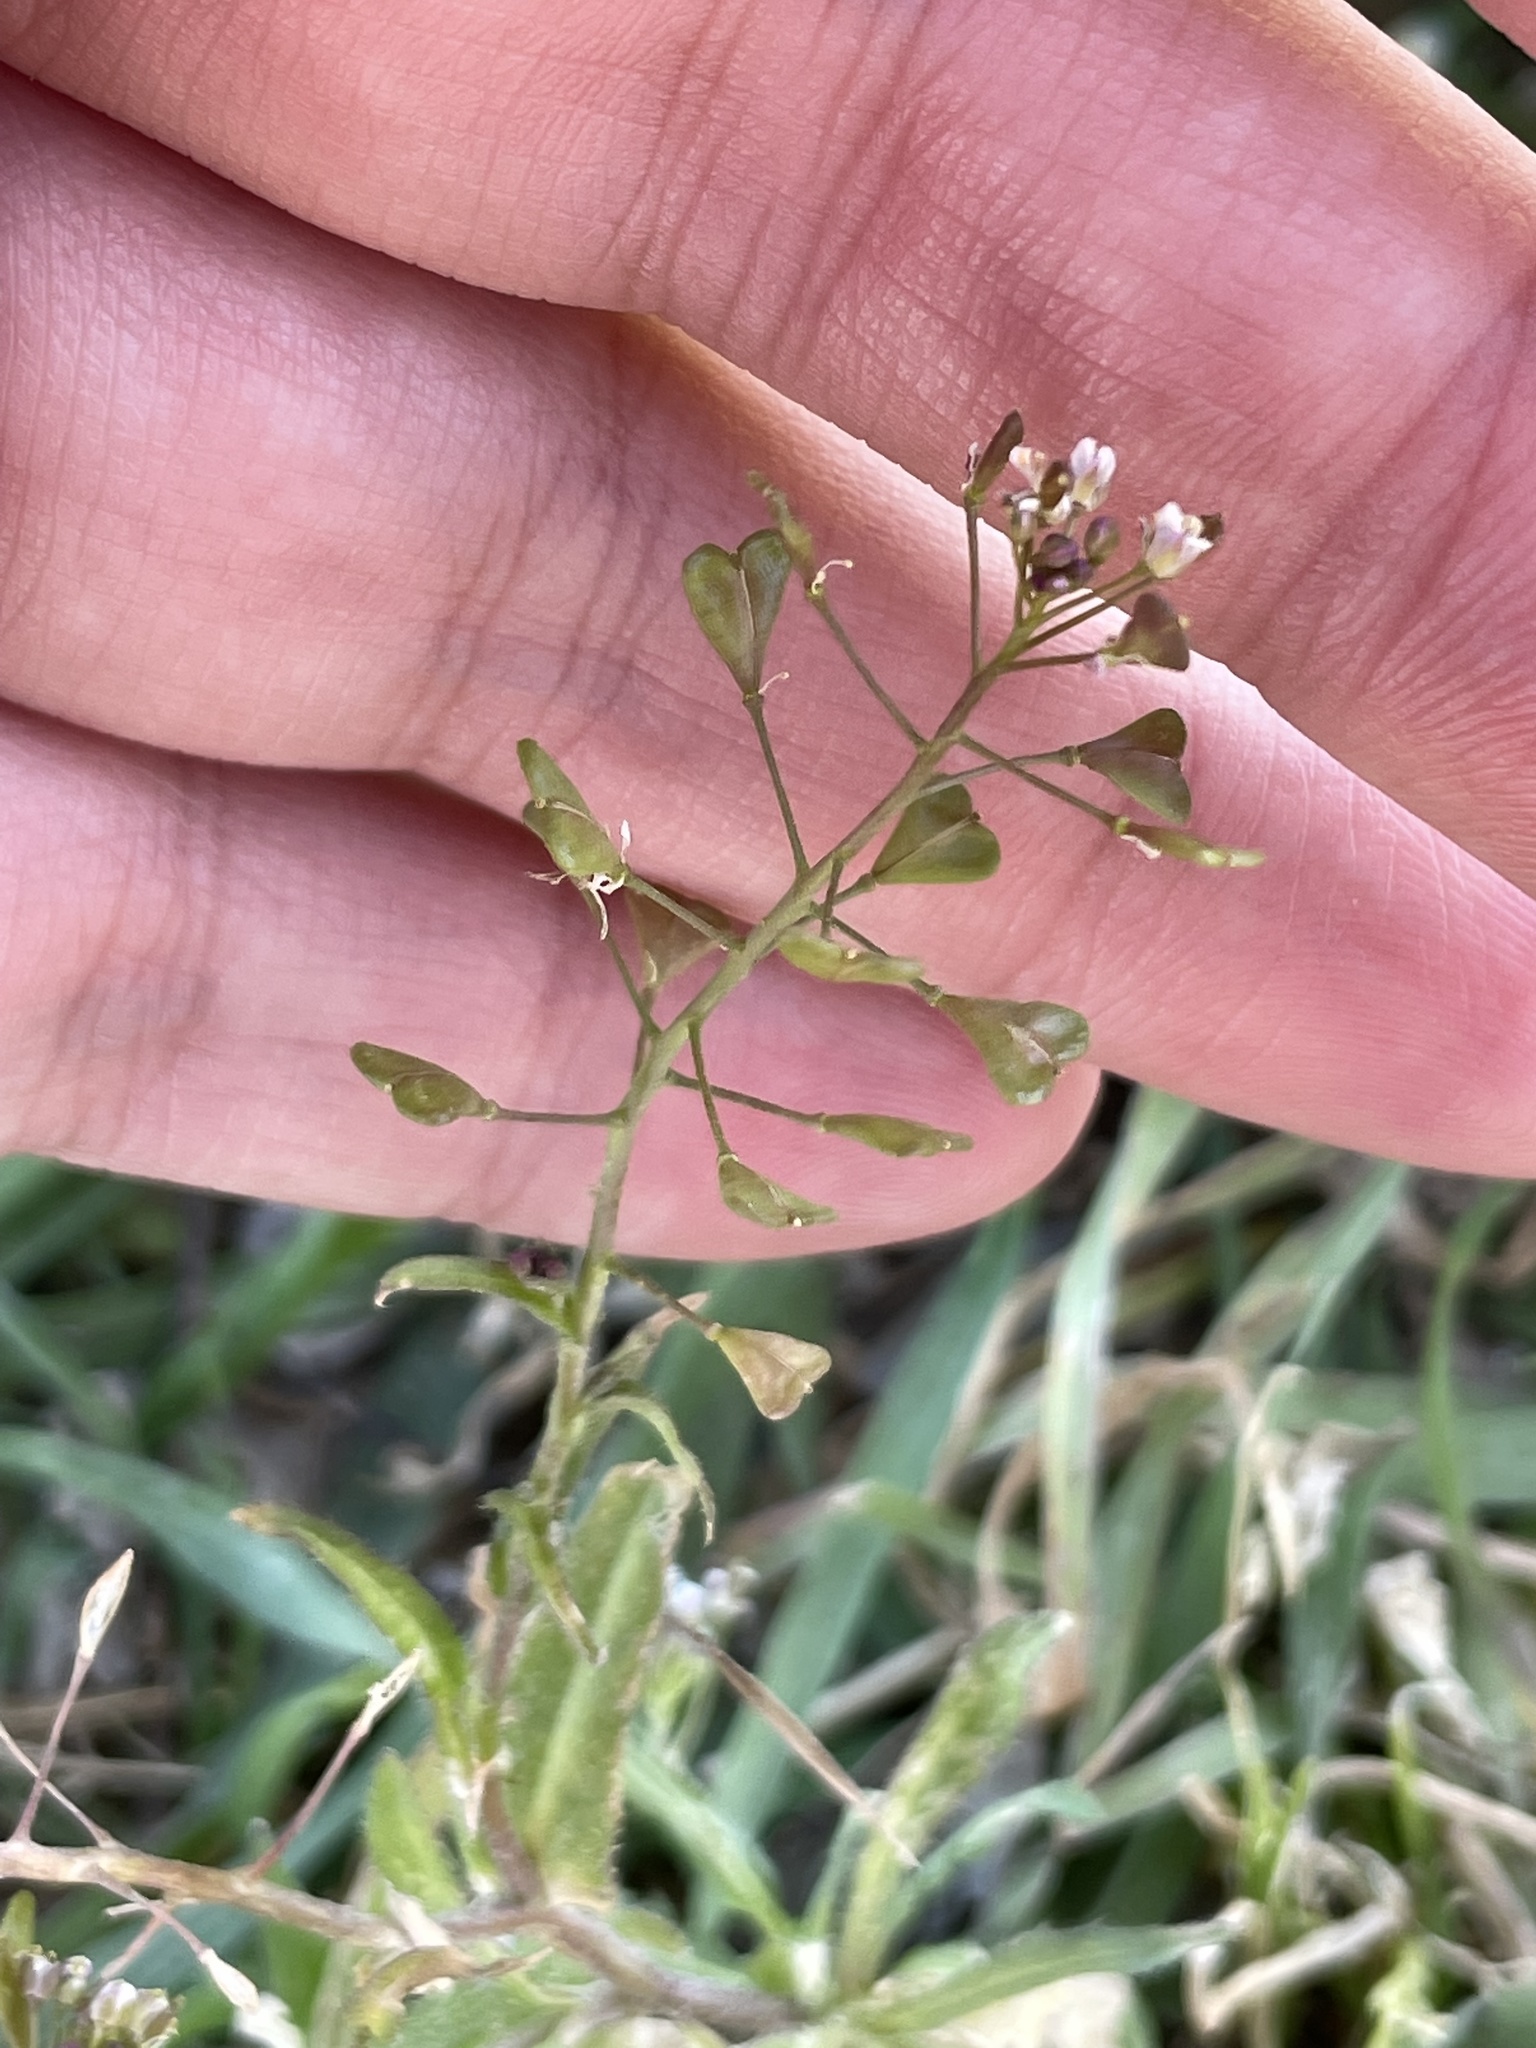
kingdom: Plantae
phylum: Tracheophyta
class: Magnoliopsida
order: Brassicales
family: Brassicaceae
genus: Capsella
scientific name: Capsella bursa-pastoris
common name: Shepherd's purse
